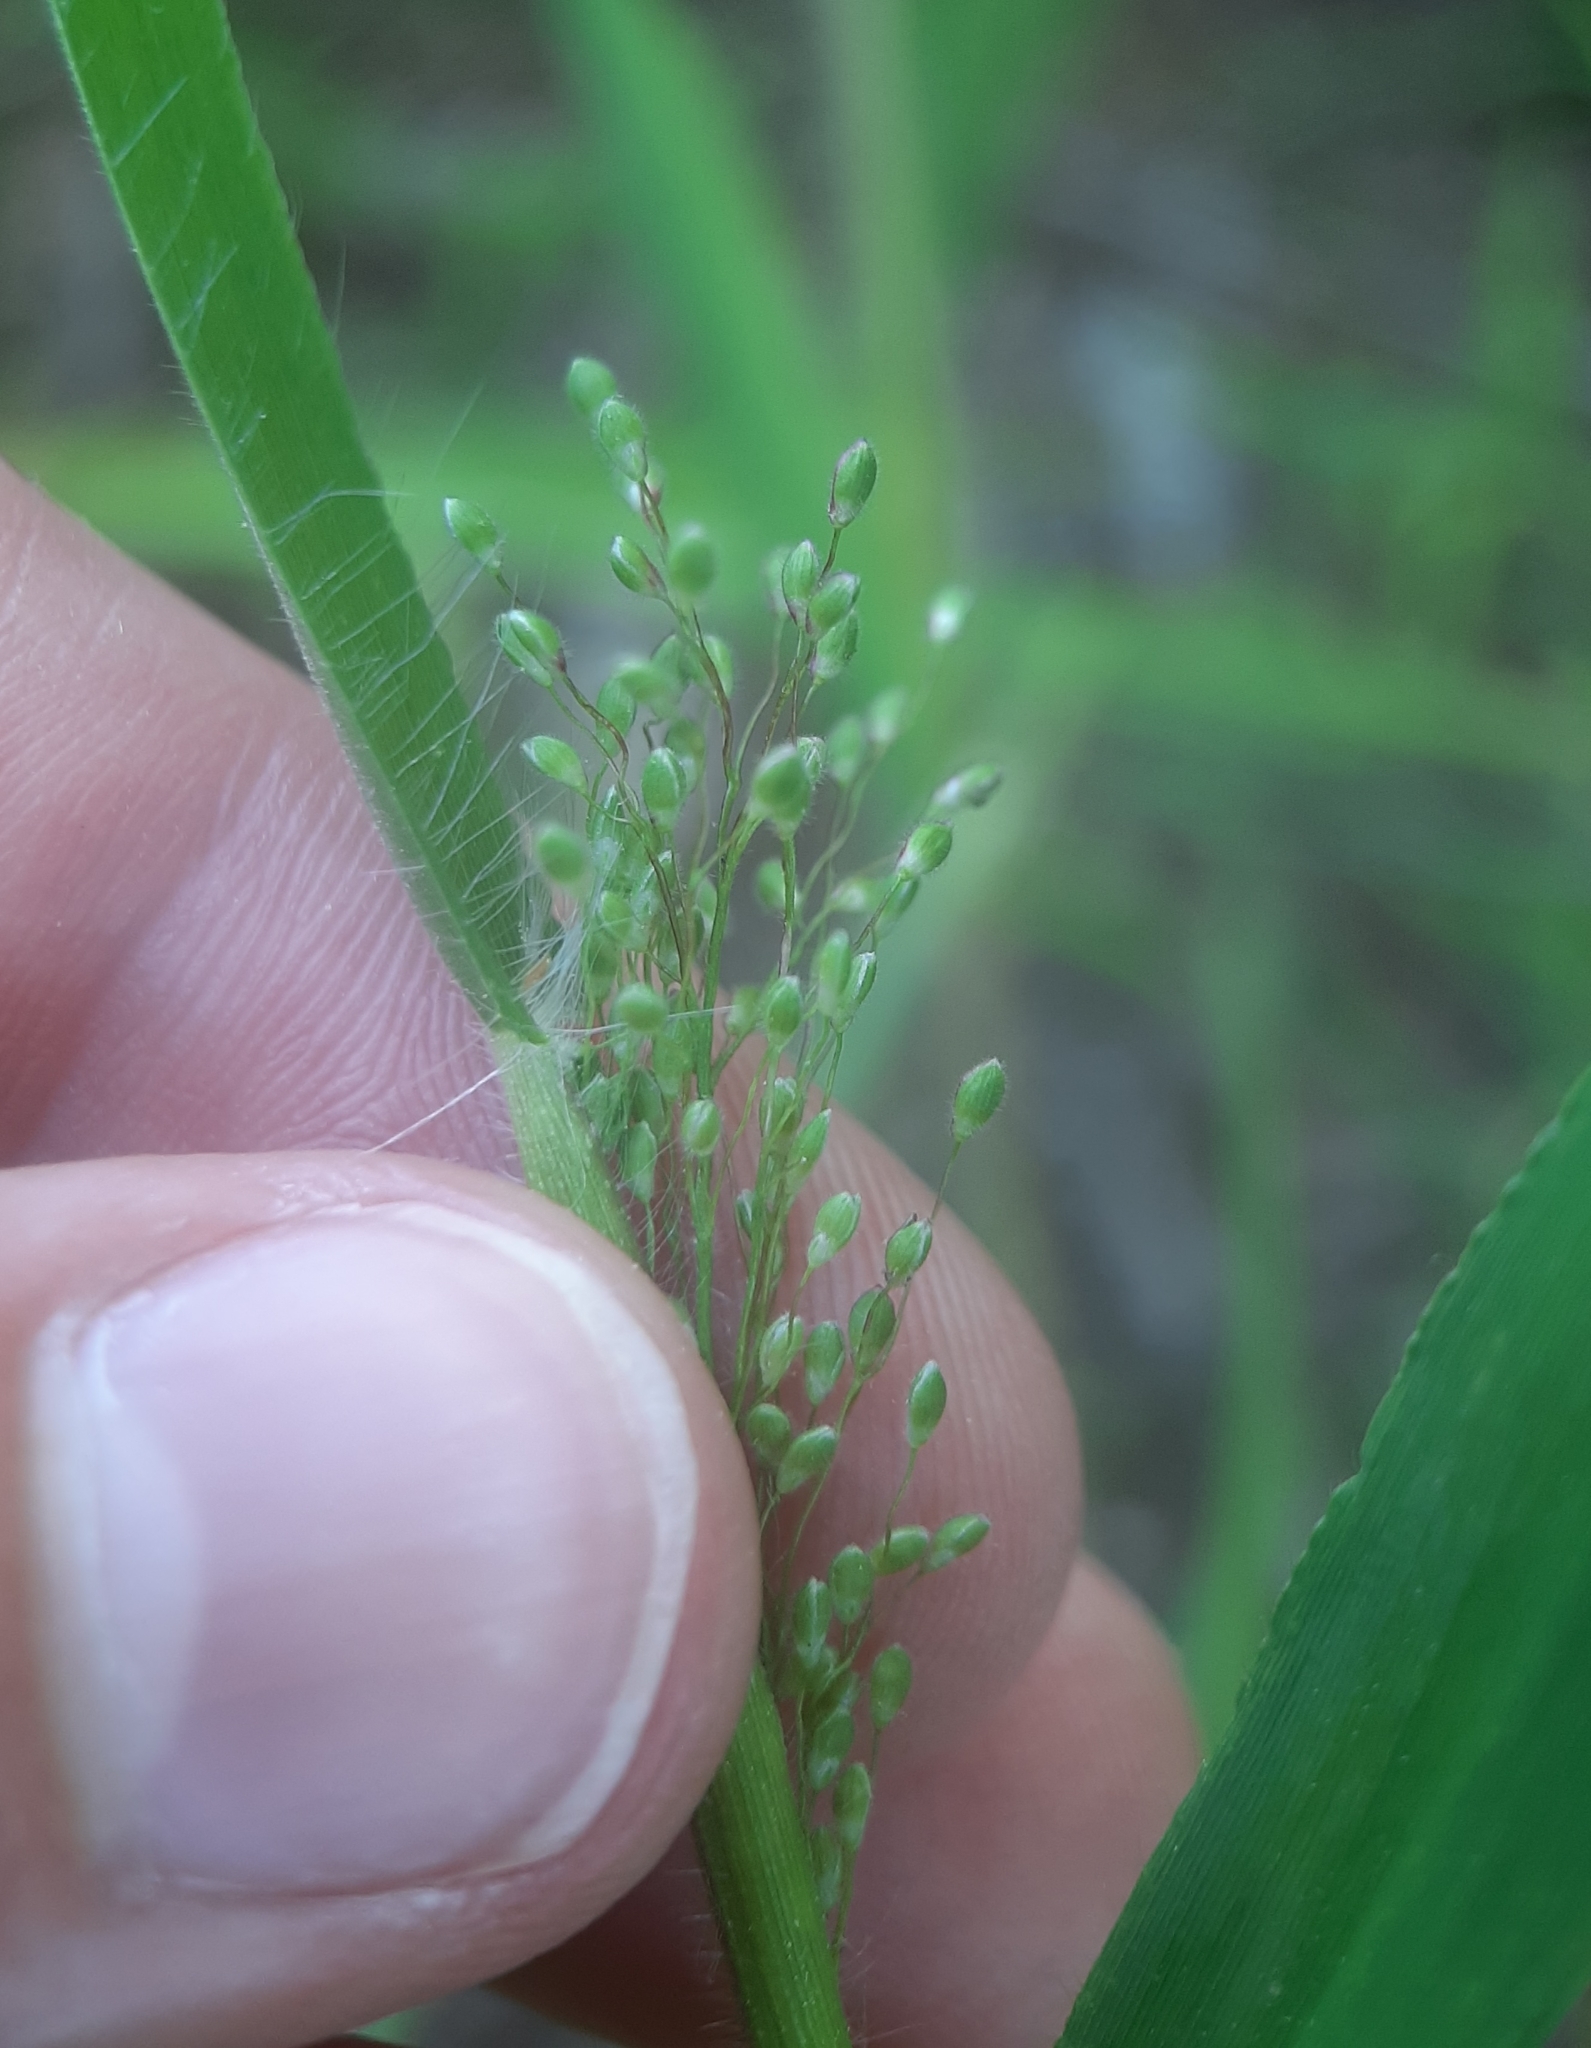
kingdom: Plantae
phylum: Tracheophyta
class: Liliopsida
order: Poales
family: Poaceae
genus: Dichanthelium
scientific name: Dichanthelium acuminatum
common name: Hairy panic grass
